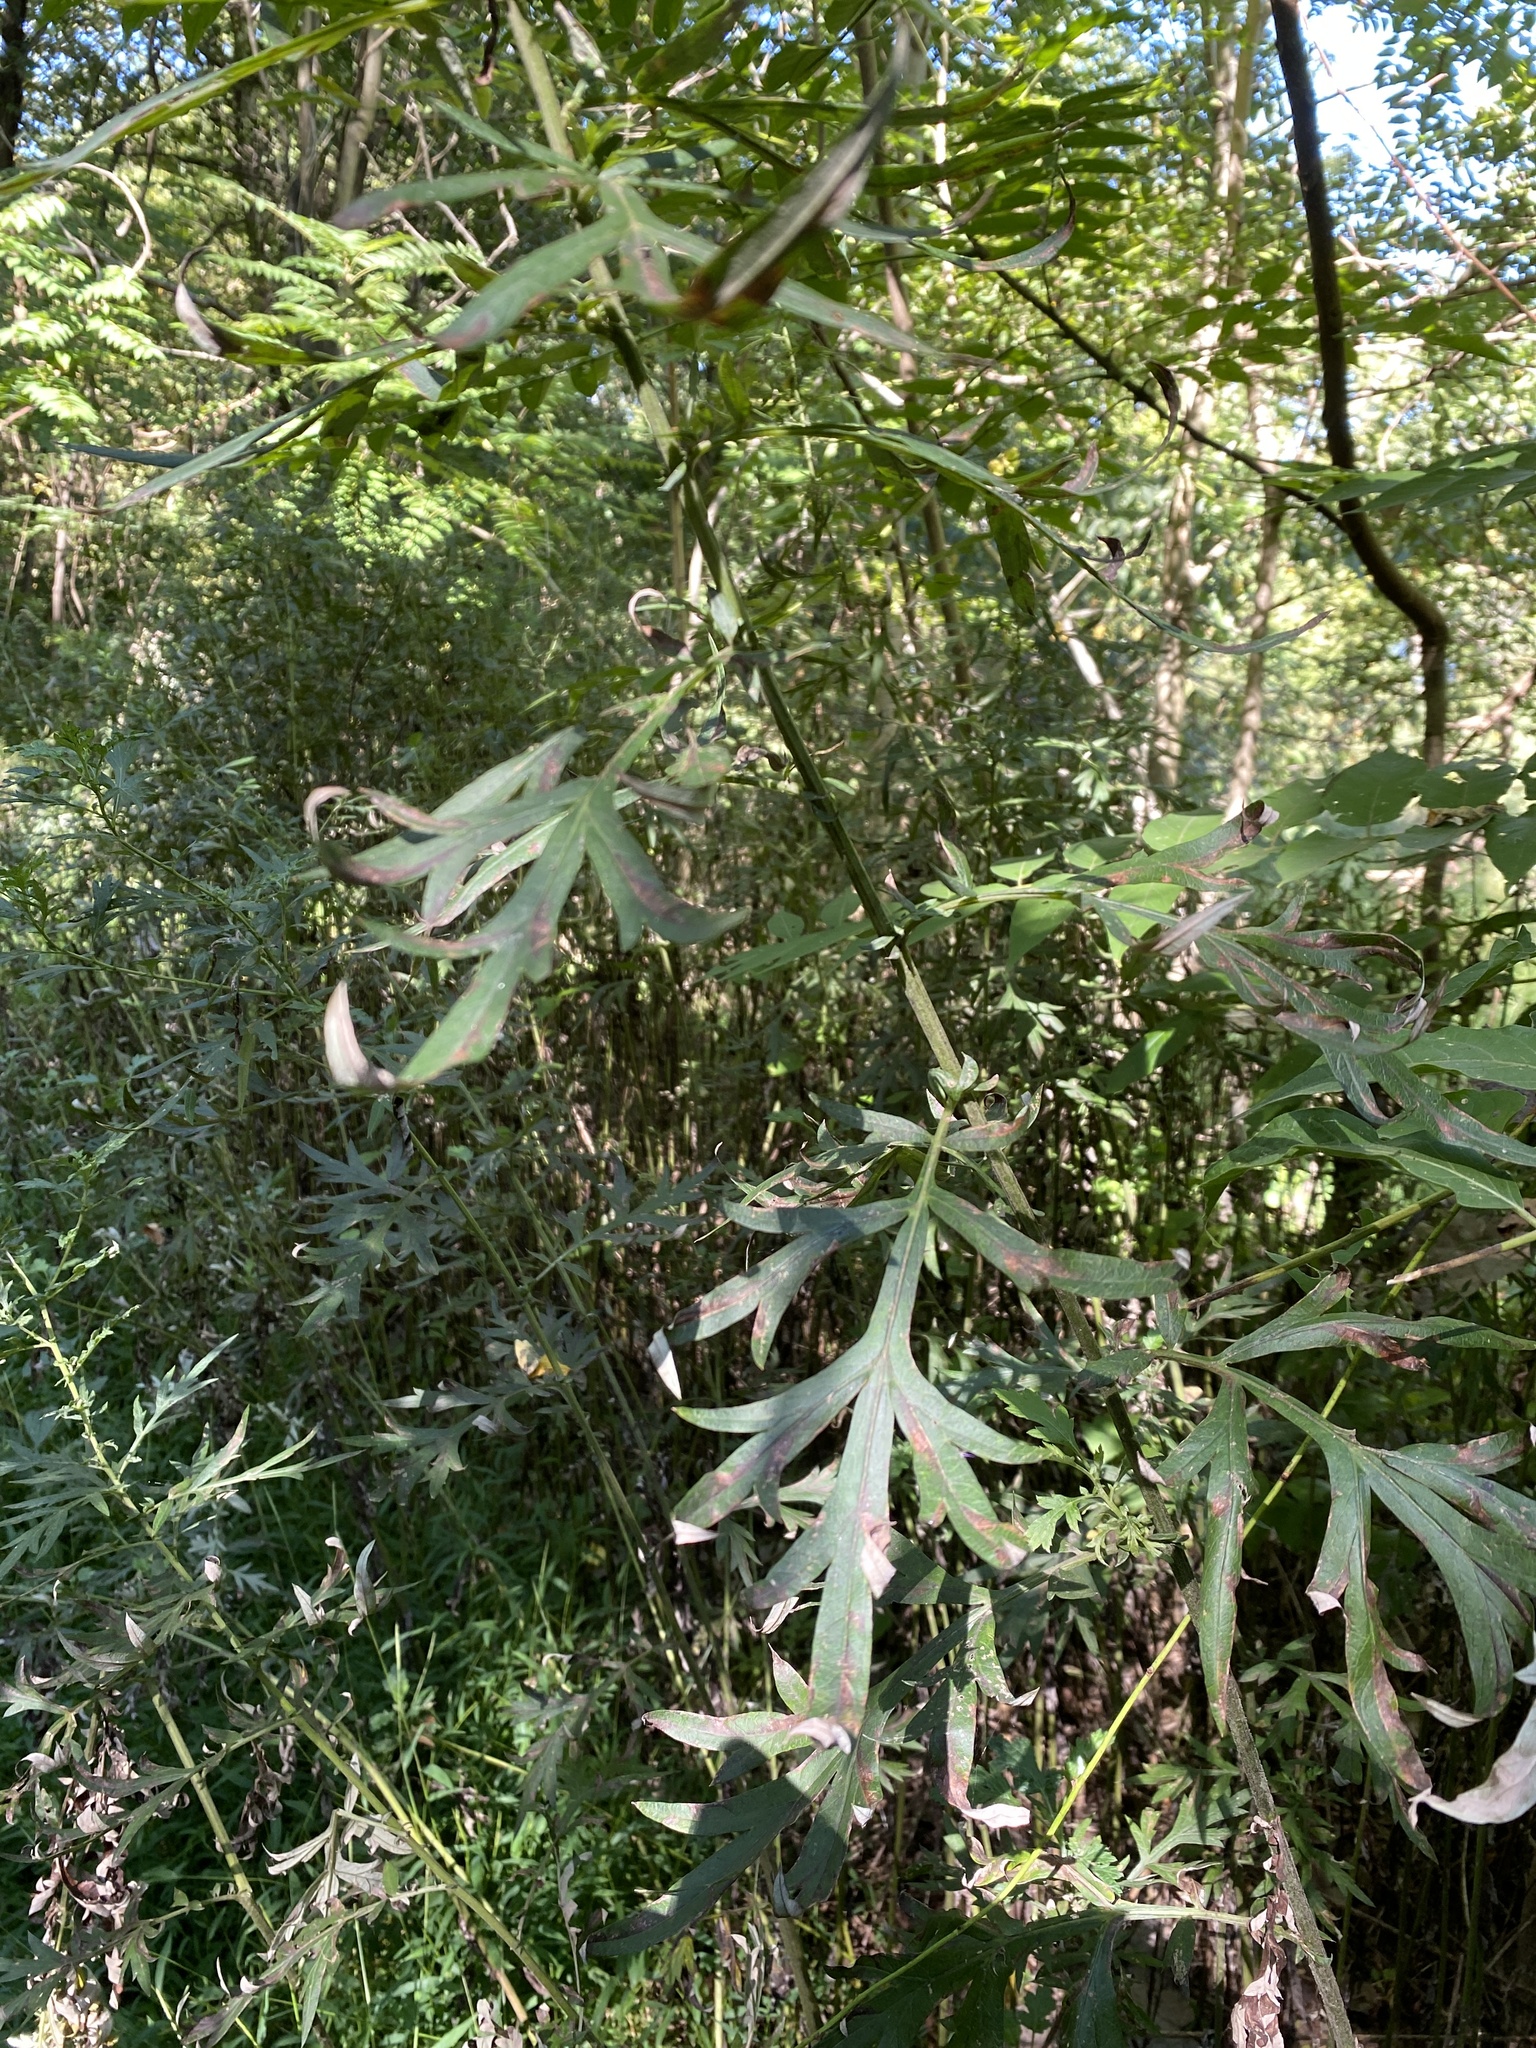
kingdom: Plantae
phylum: Tracheophyta
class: Magnoliopsida
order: Asterales
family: Asteraceae
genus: Artemisia
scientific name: Artemisia vulgaris
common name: Mugwort
